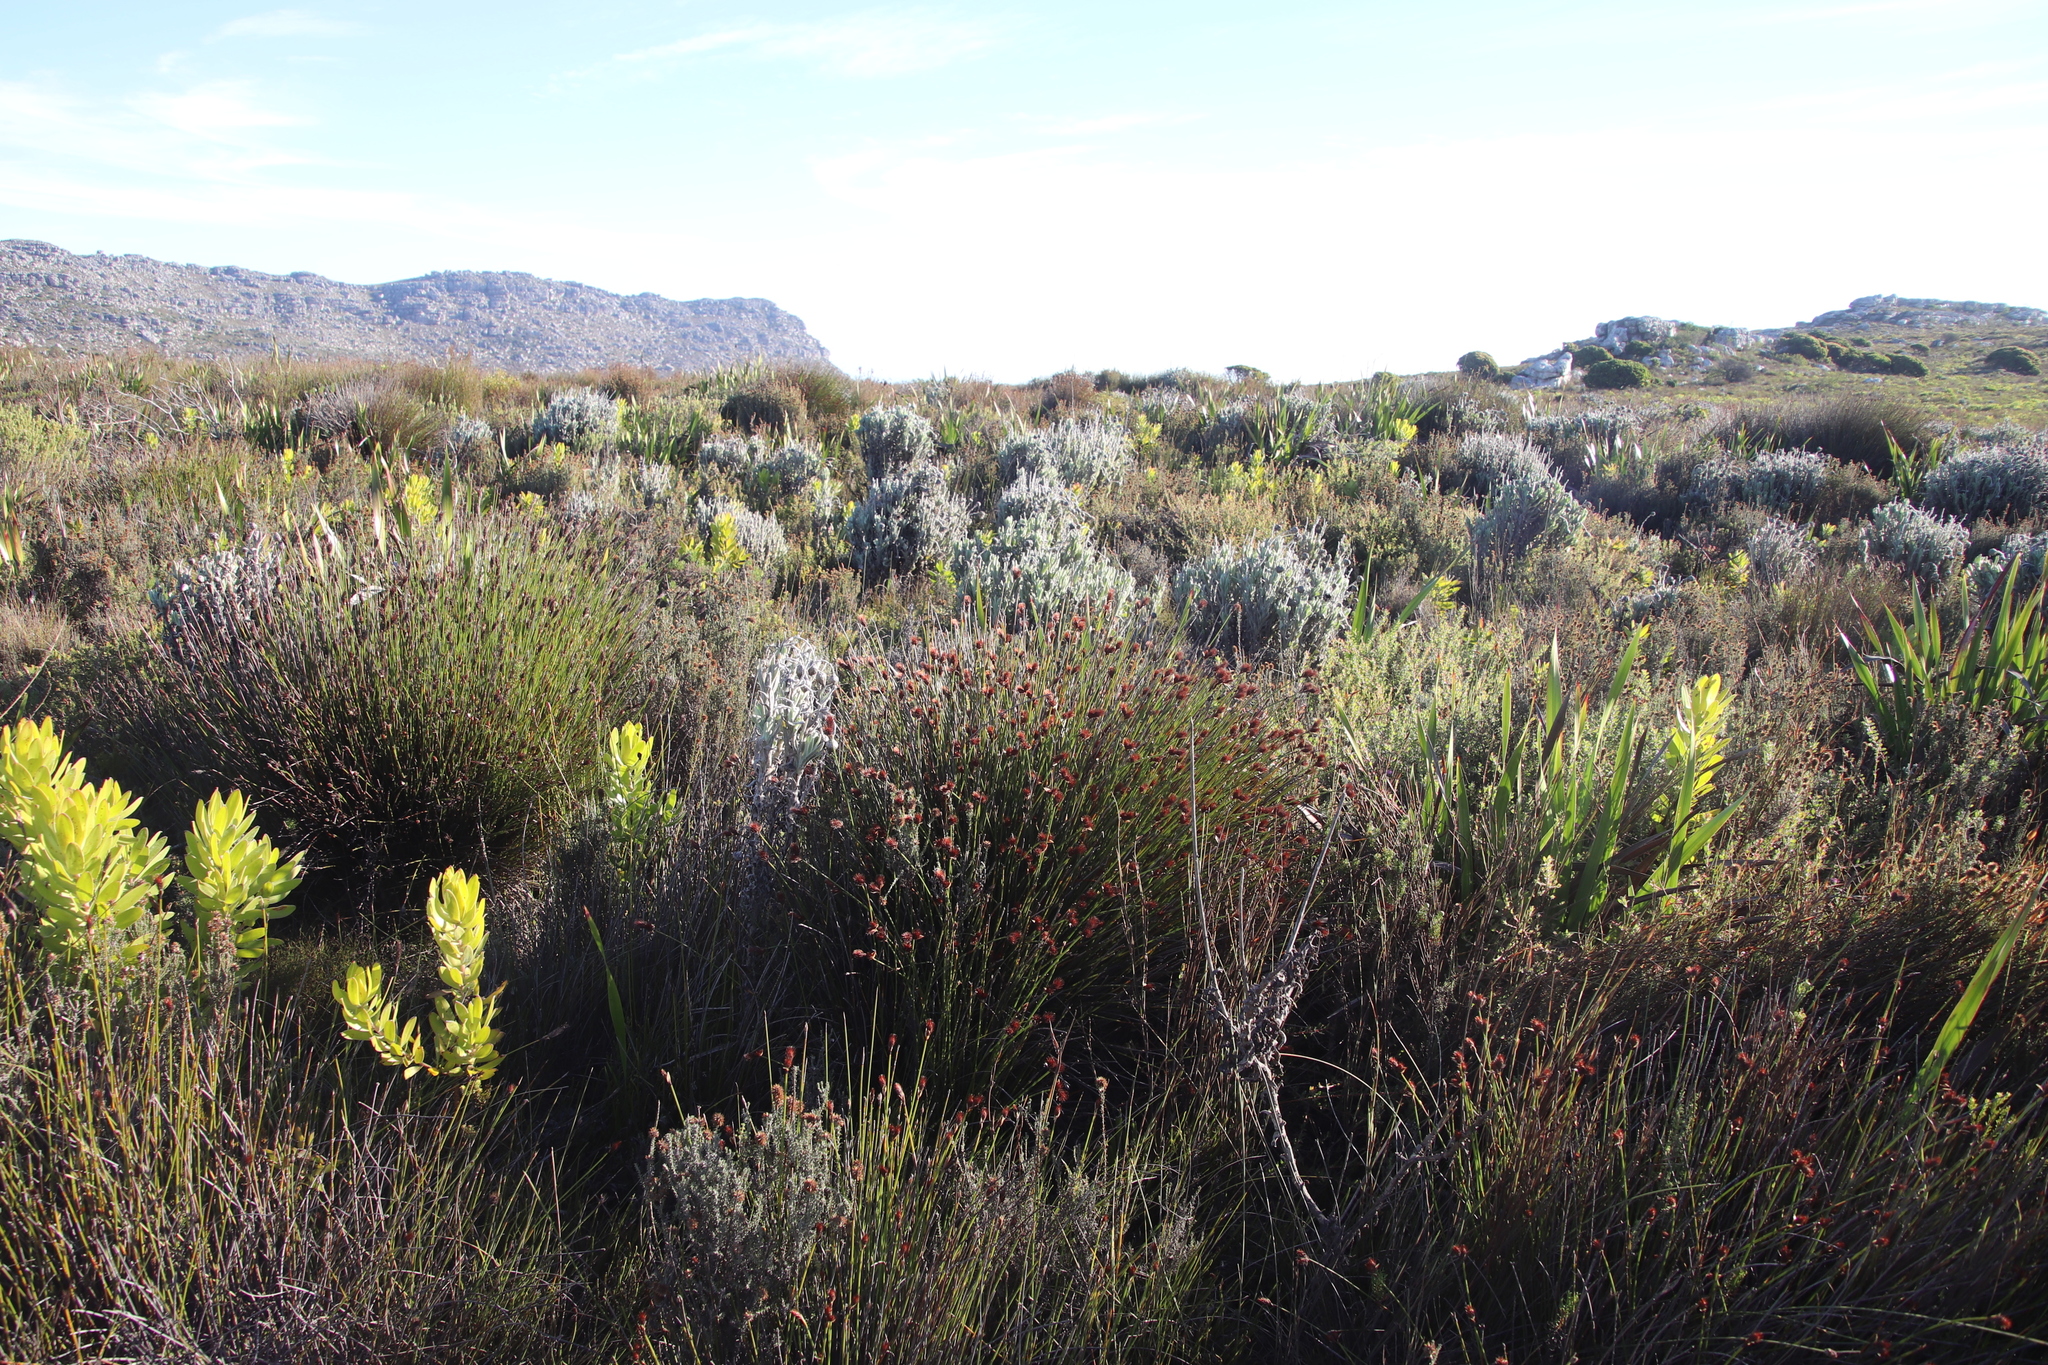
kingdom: Plantae
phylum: Tracheophyta
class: Liliopsida
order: Poales
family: Restionaceae
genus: Hypodiscus
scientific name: Hypodiscus aristatus
